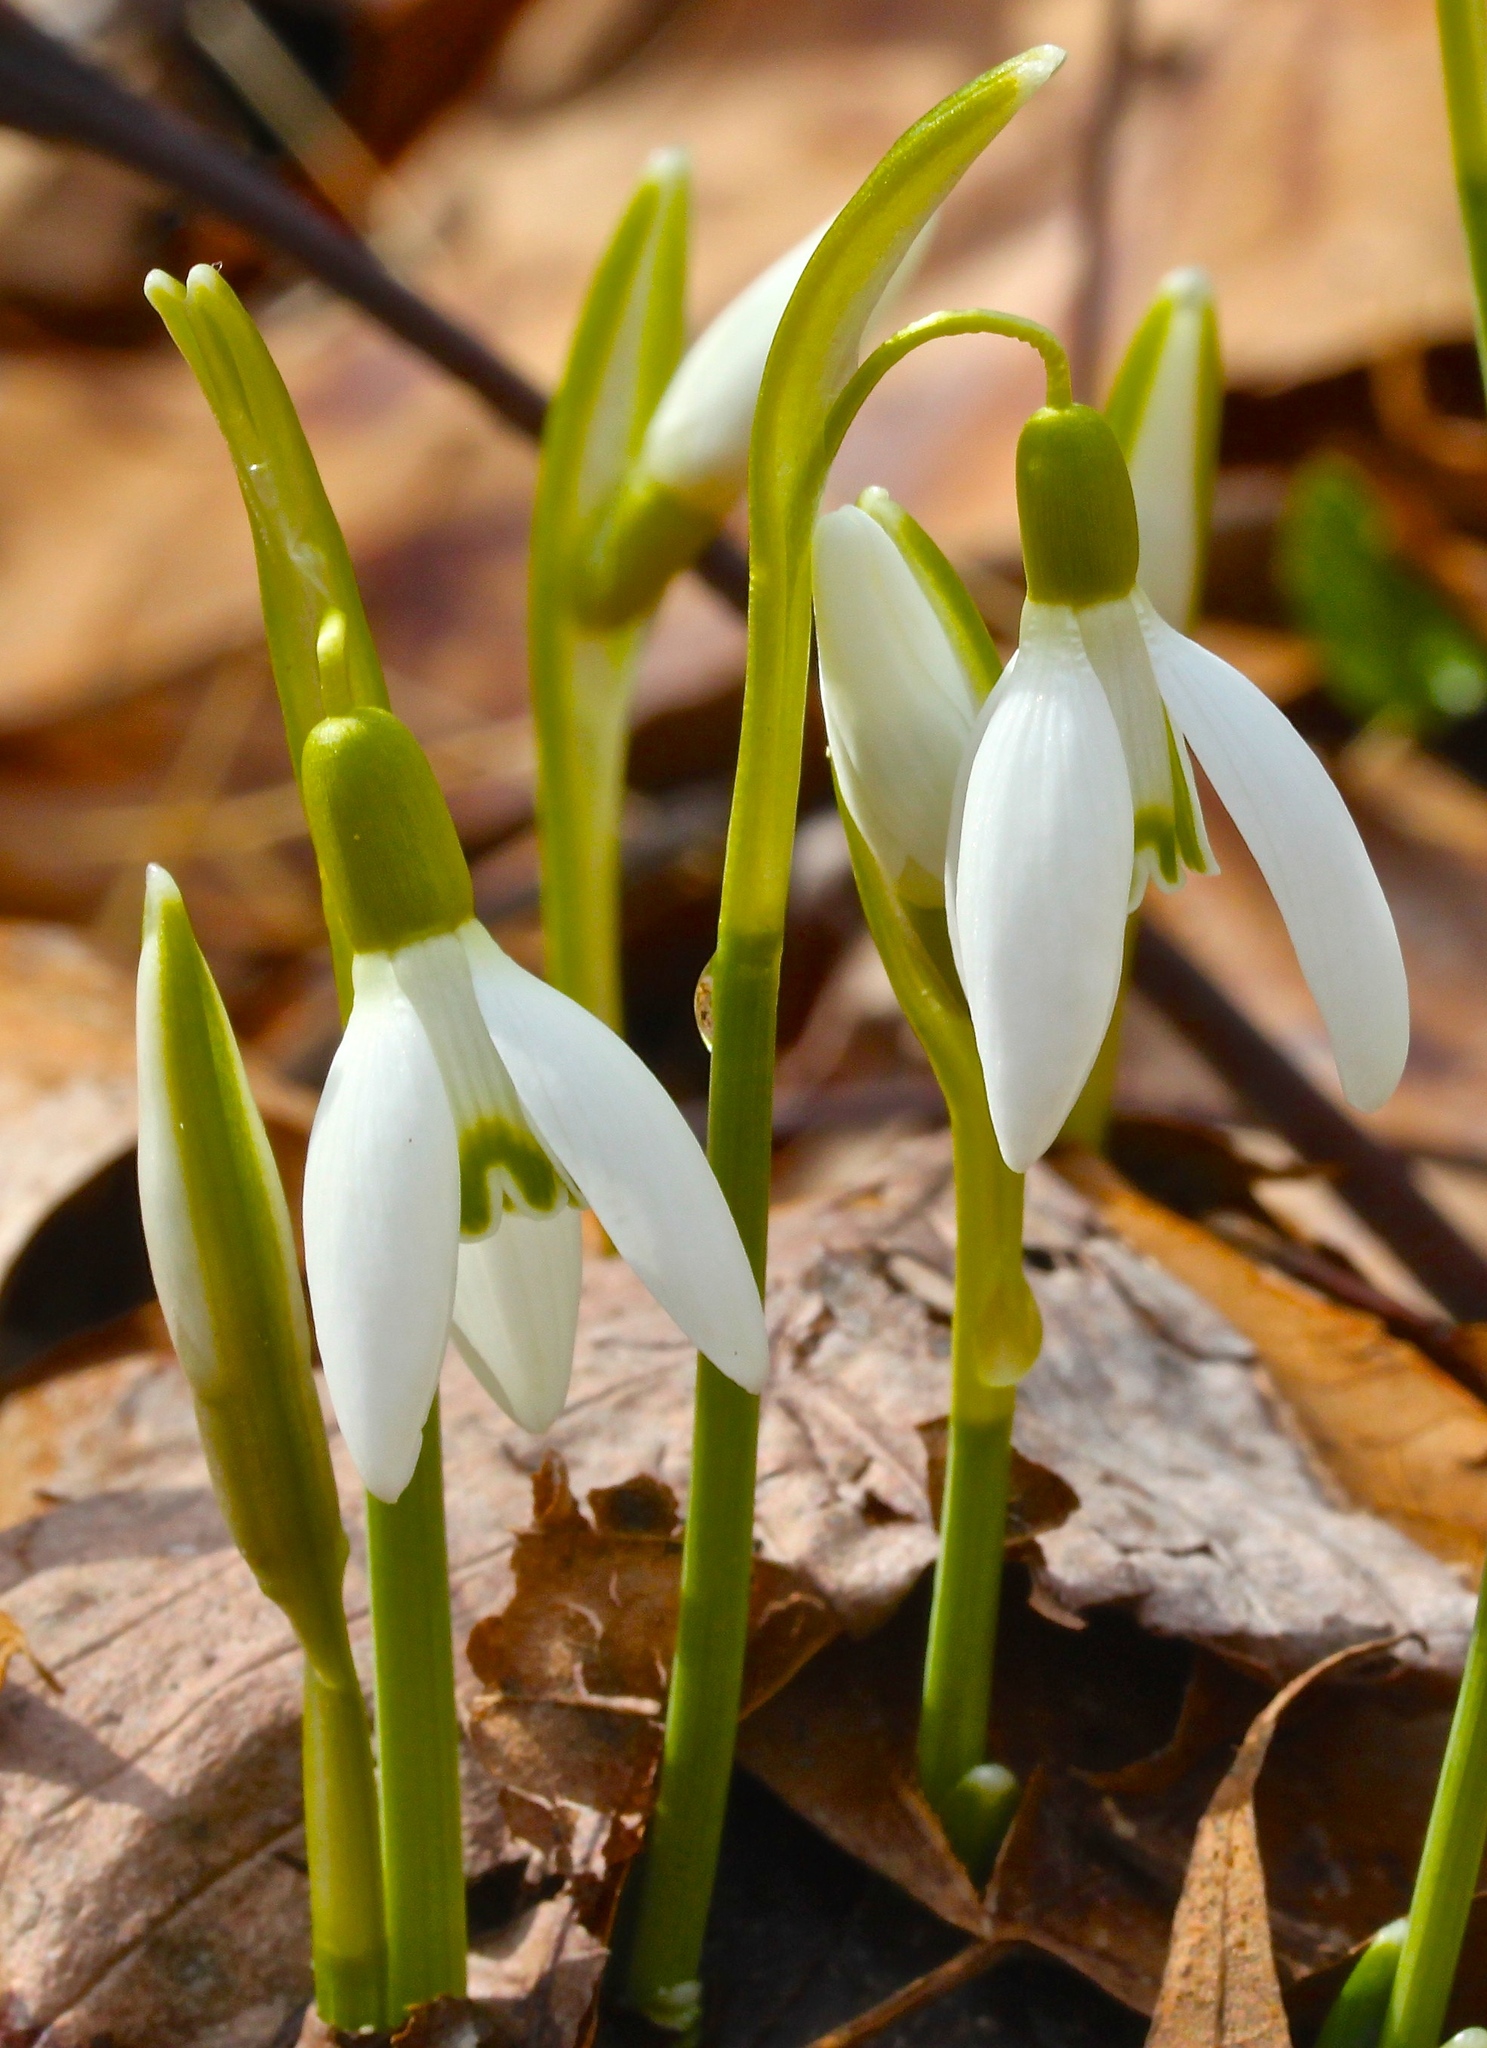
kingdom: Plantae
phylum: Tracheophyta
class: Liliopsida
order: Asparagales
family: Amaryllidaceae
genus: Galanthus
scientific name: Galanthus nivalis
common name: Snowdrop
